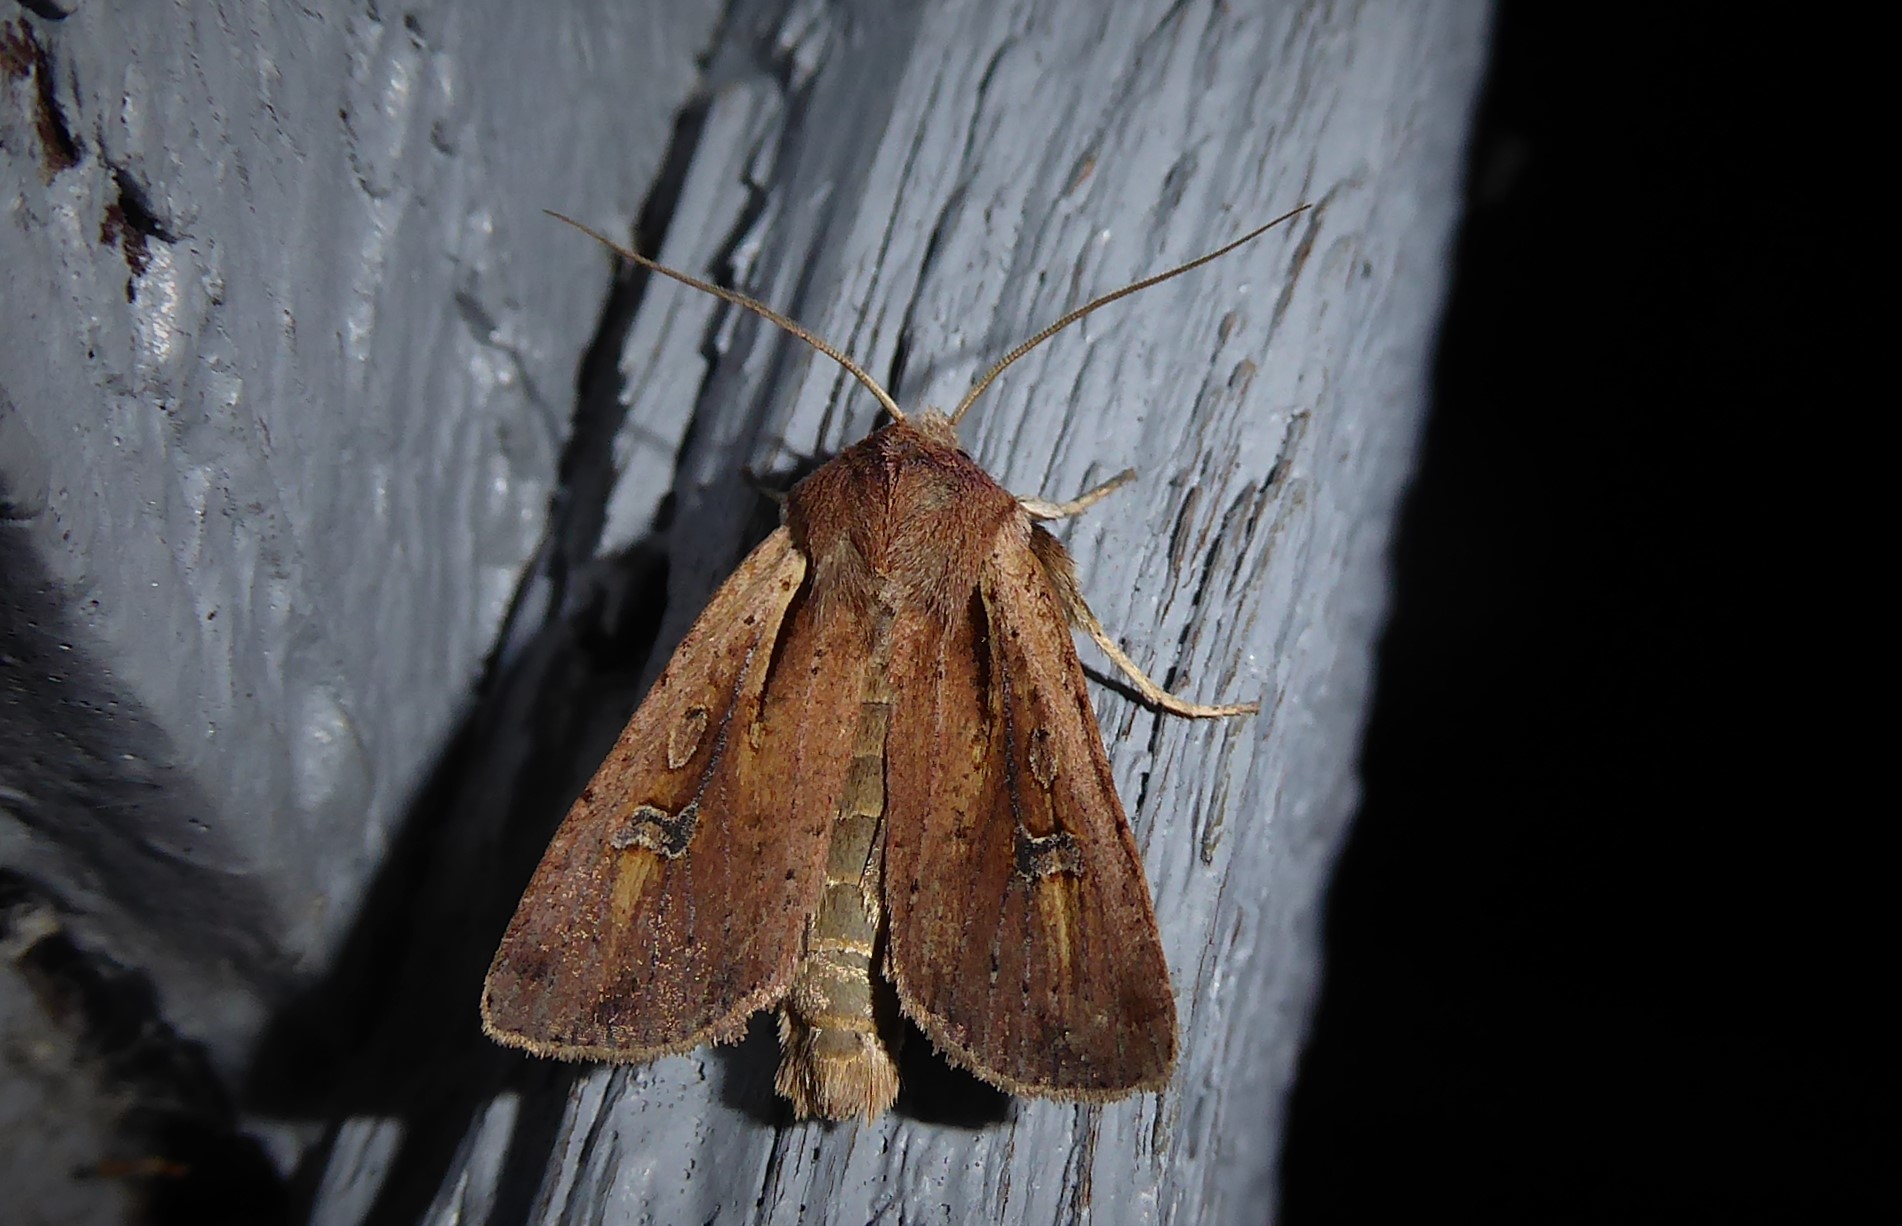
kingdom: Animalia
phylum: Arthropoda
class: Insecta
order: Lepidoptera
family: Noctuidae
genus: Ichneutica
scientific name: Ichneutica atristriga
